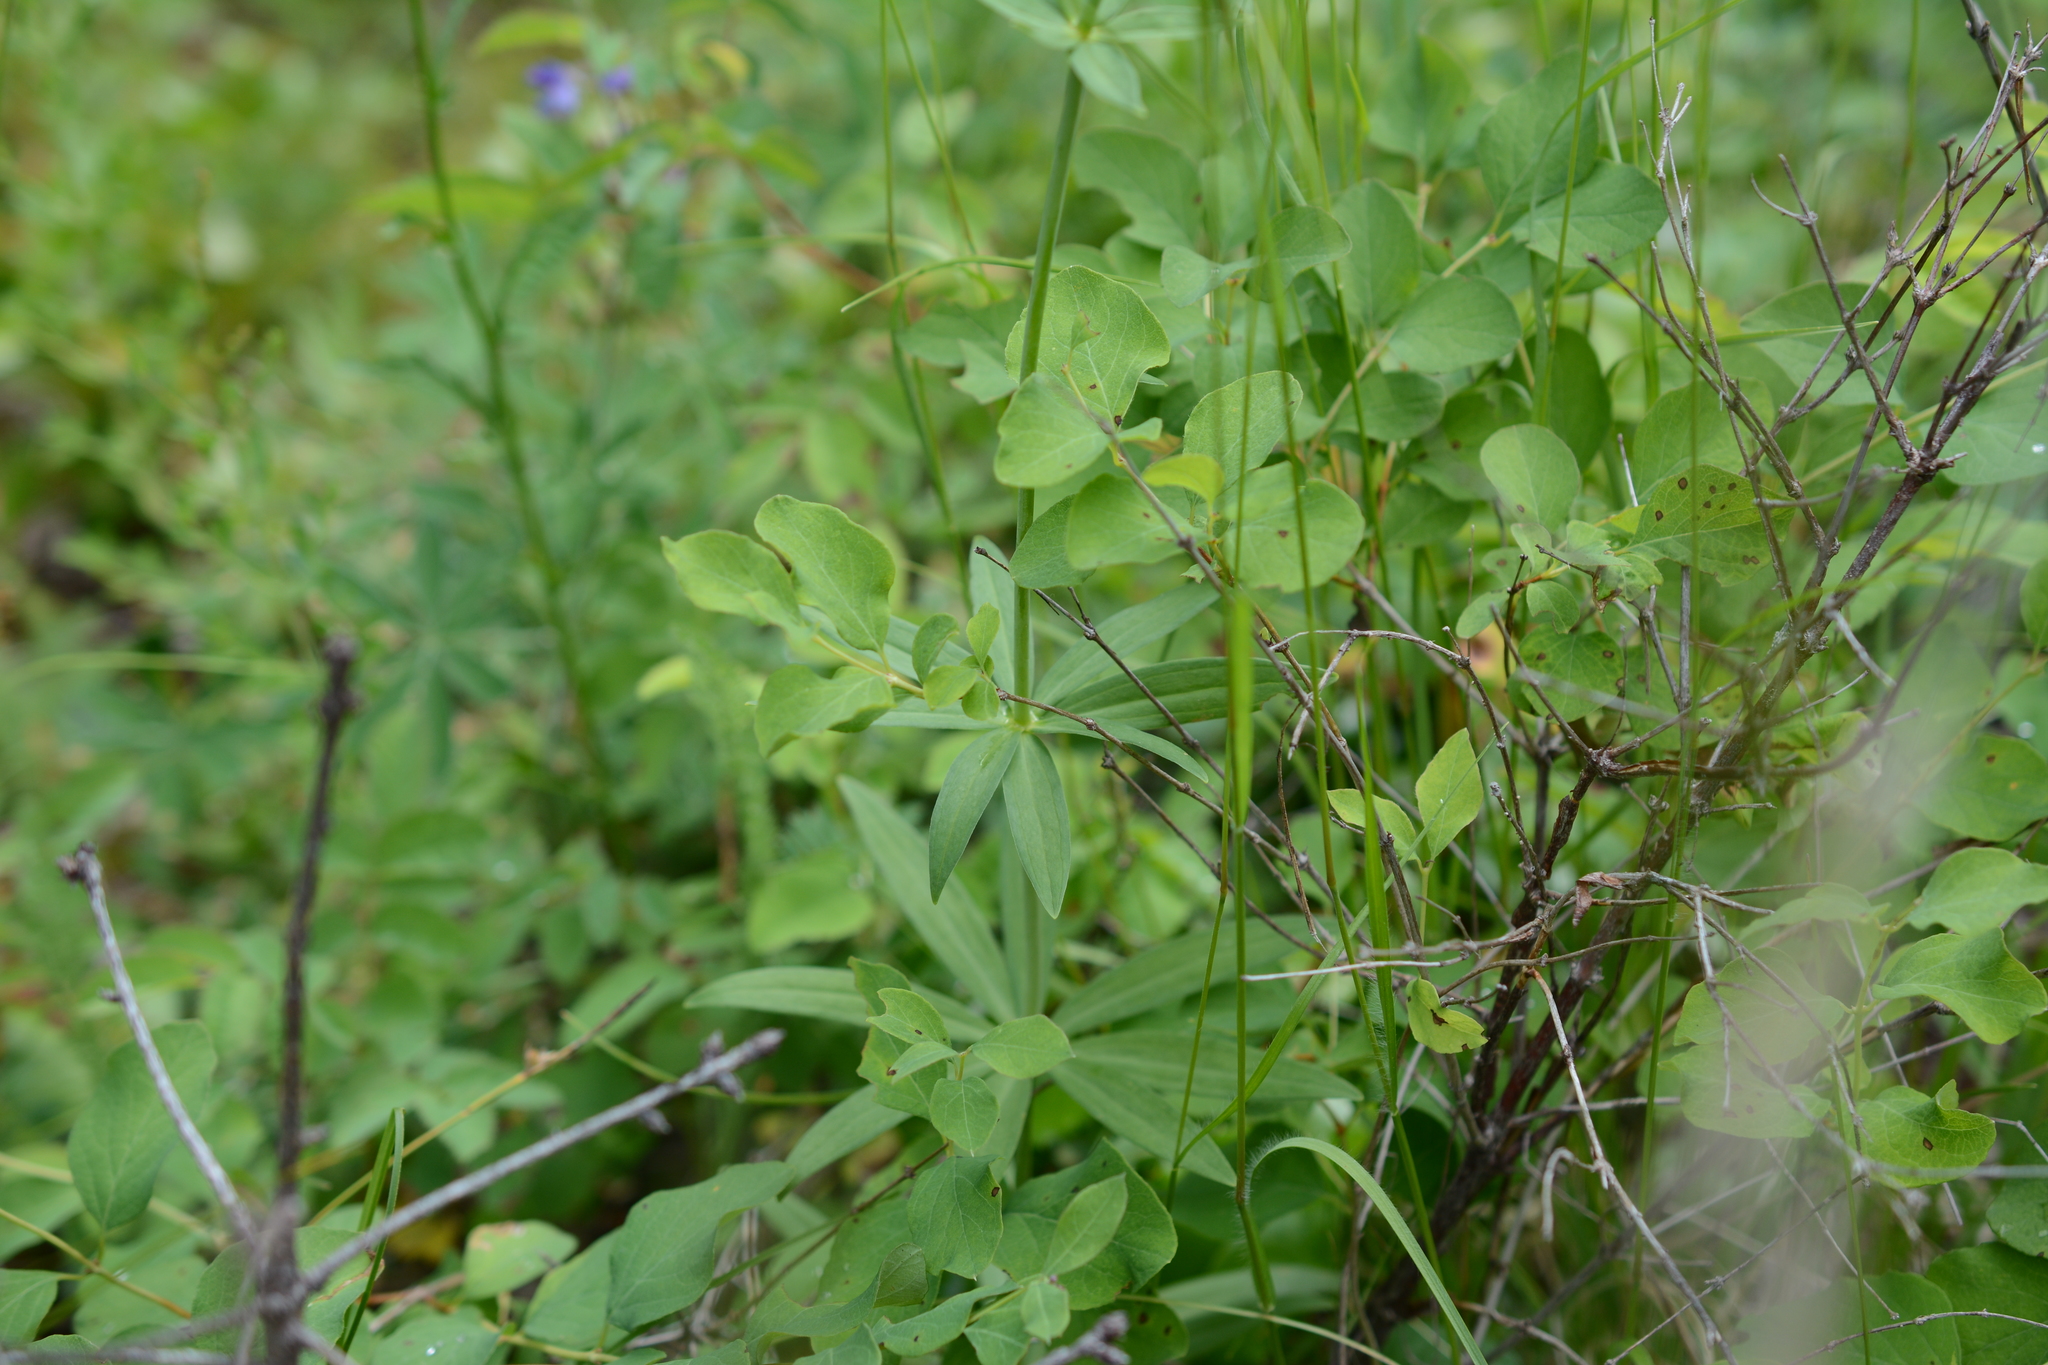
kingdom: Plantae
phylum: Tracheophyta
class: Liliopsida
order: Liliales
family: Liliaceae
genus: Lilium
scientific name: Lilium columbianum
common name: Columbia lily
